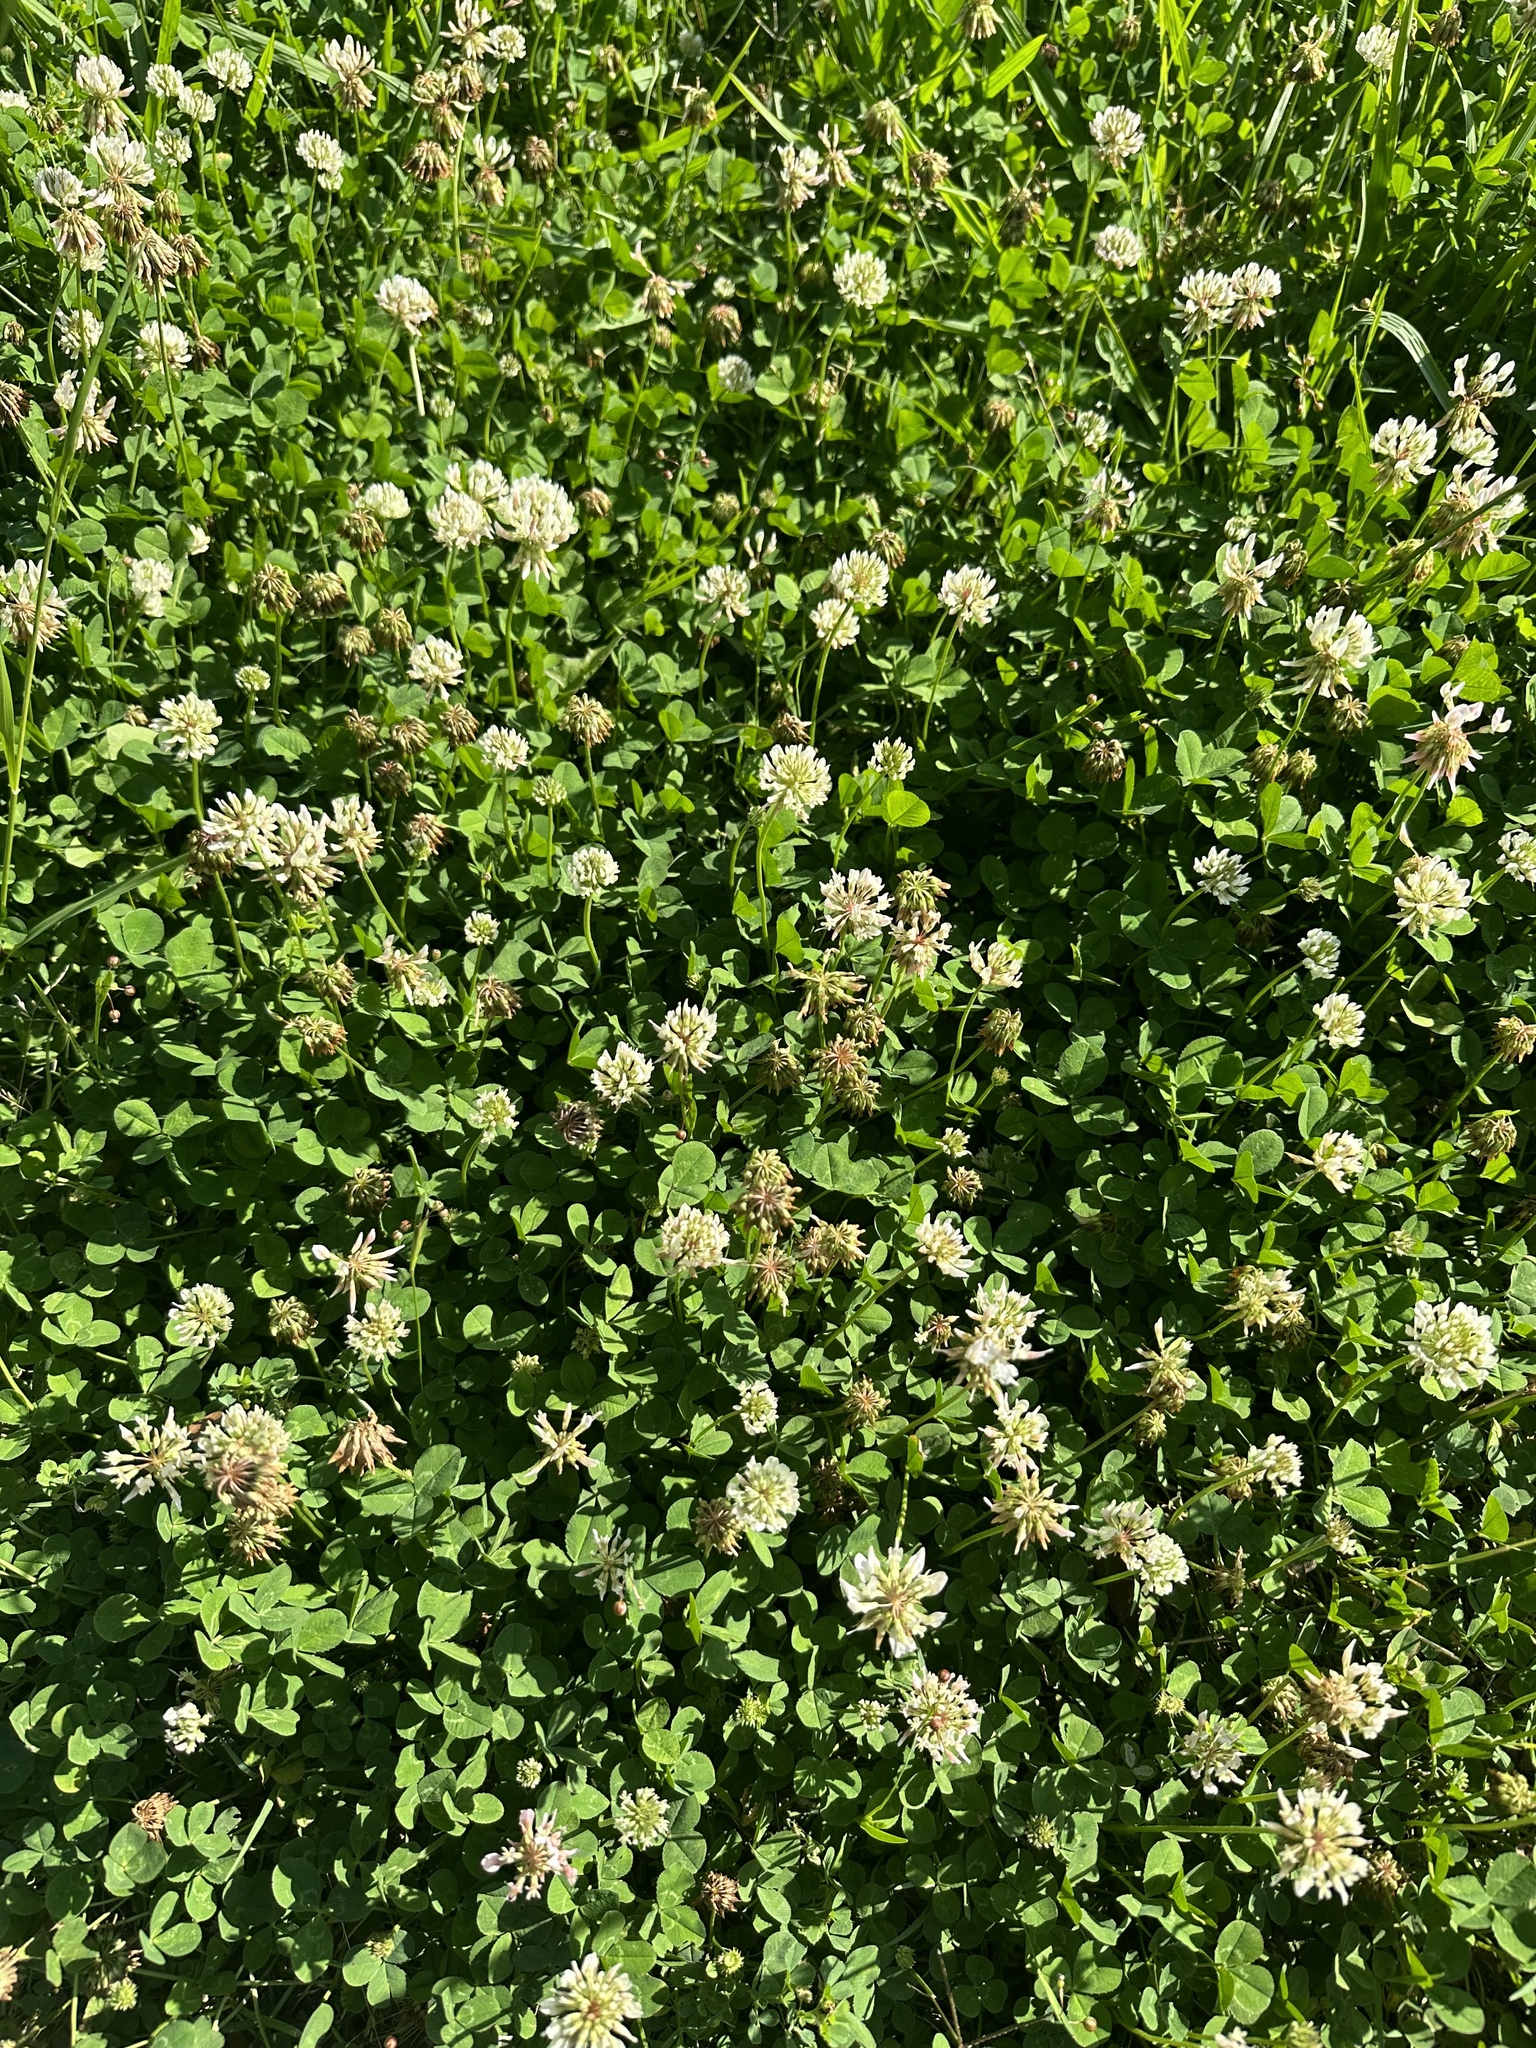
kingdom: Plantae
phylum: Tracheophyta
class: Magnoliopsida
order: Fabales
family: Fabaceae
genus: Trifolium
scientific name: Trifolium repens
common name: White clover
